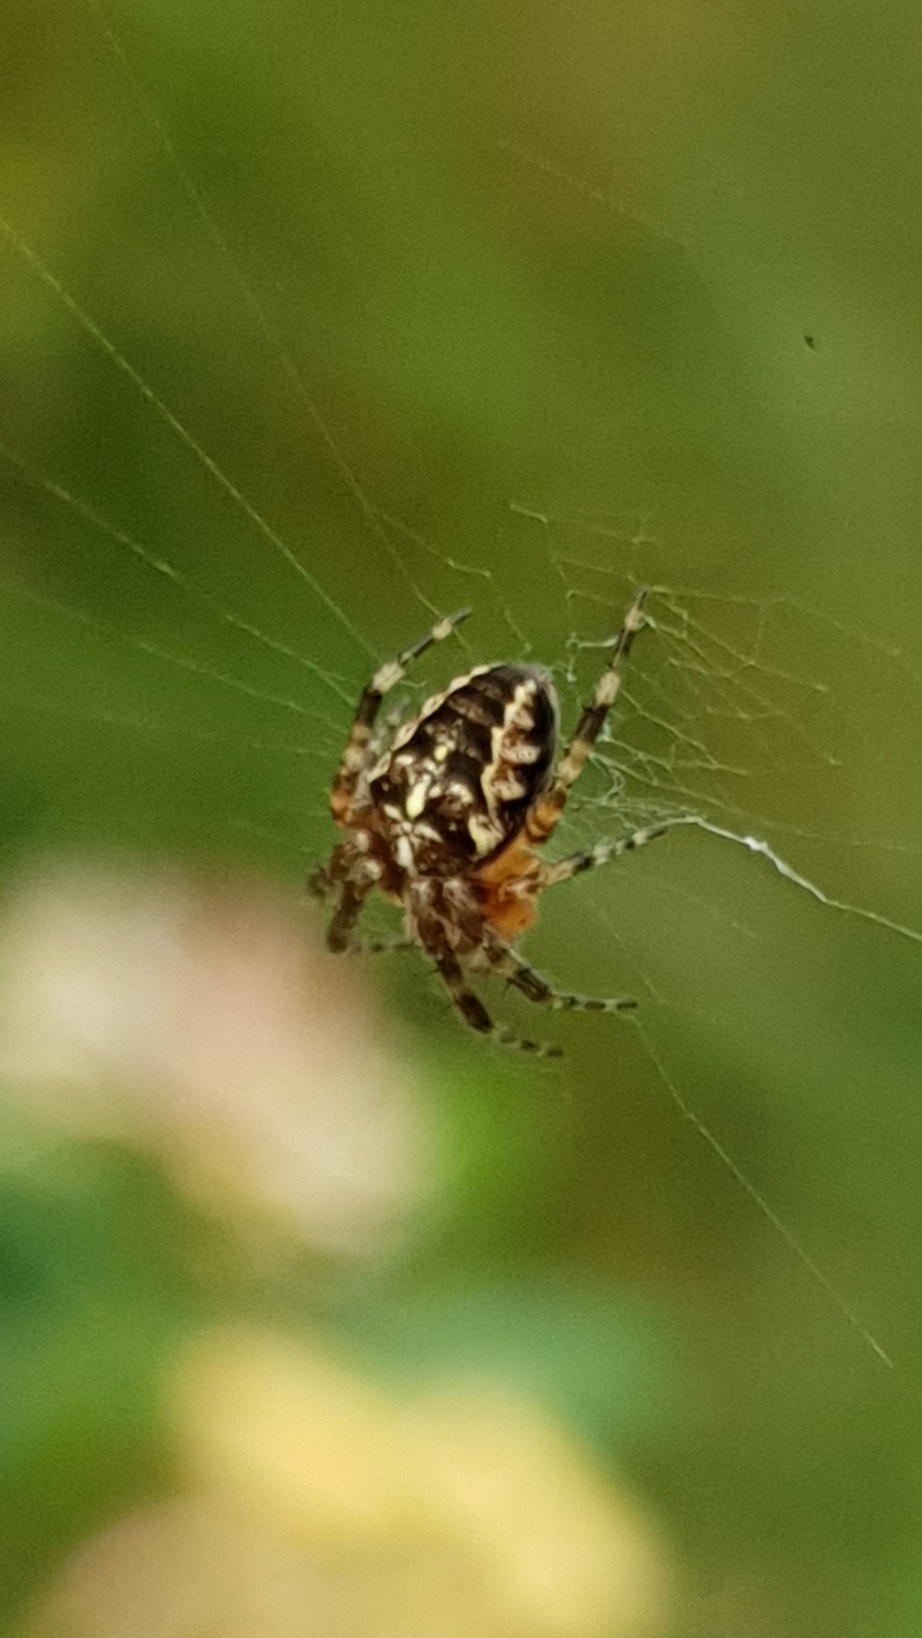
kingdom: Animalia
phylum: Arthropoda
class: Arachnida
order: Araneae
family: Araneidae
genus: Araneus
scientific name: Araneus diadematus
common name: Cross orbweaver
